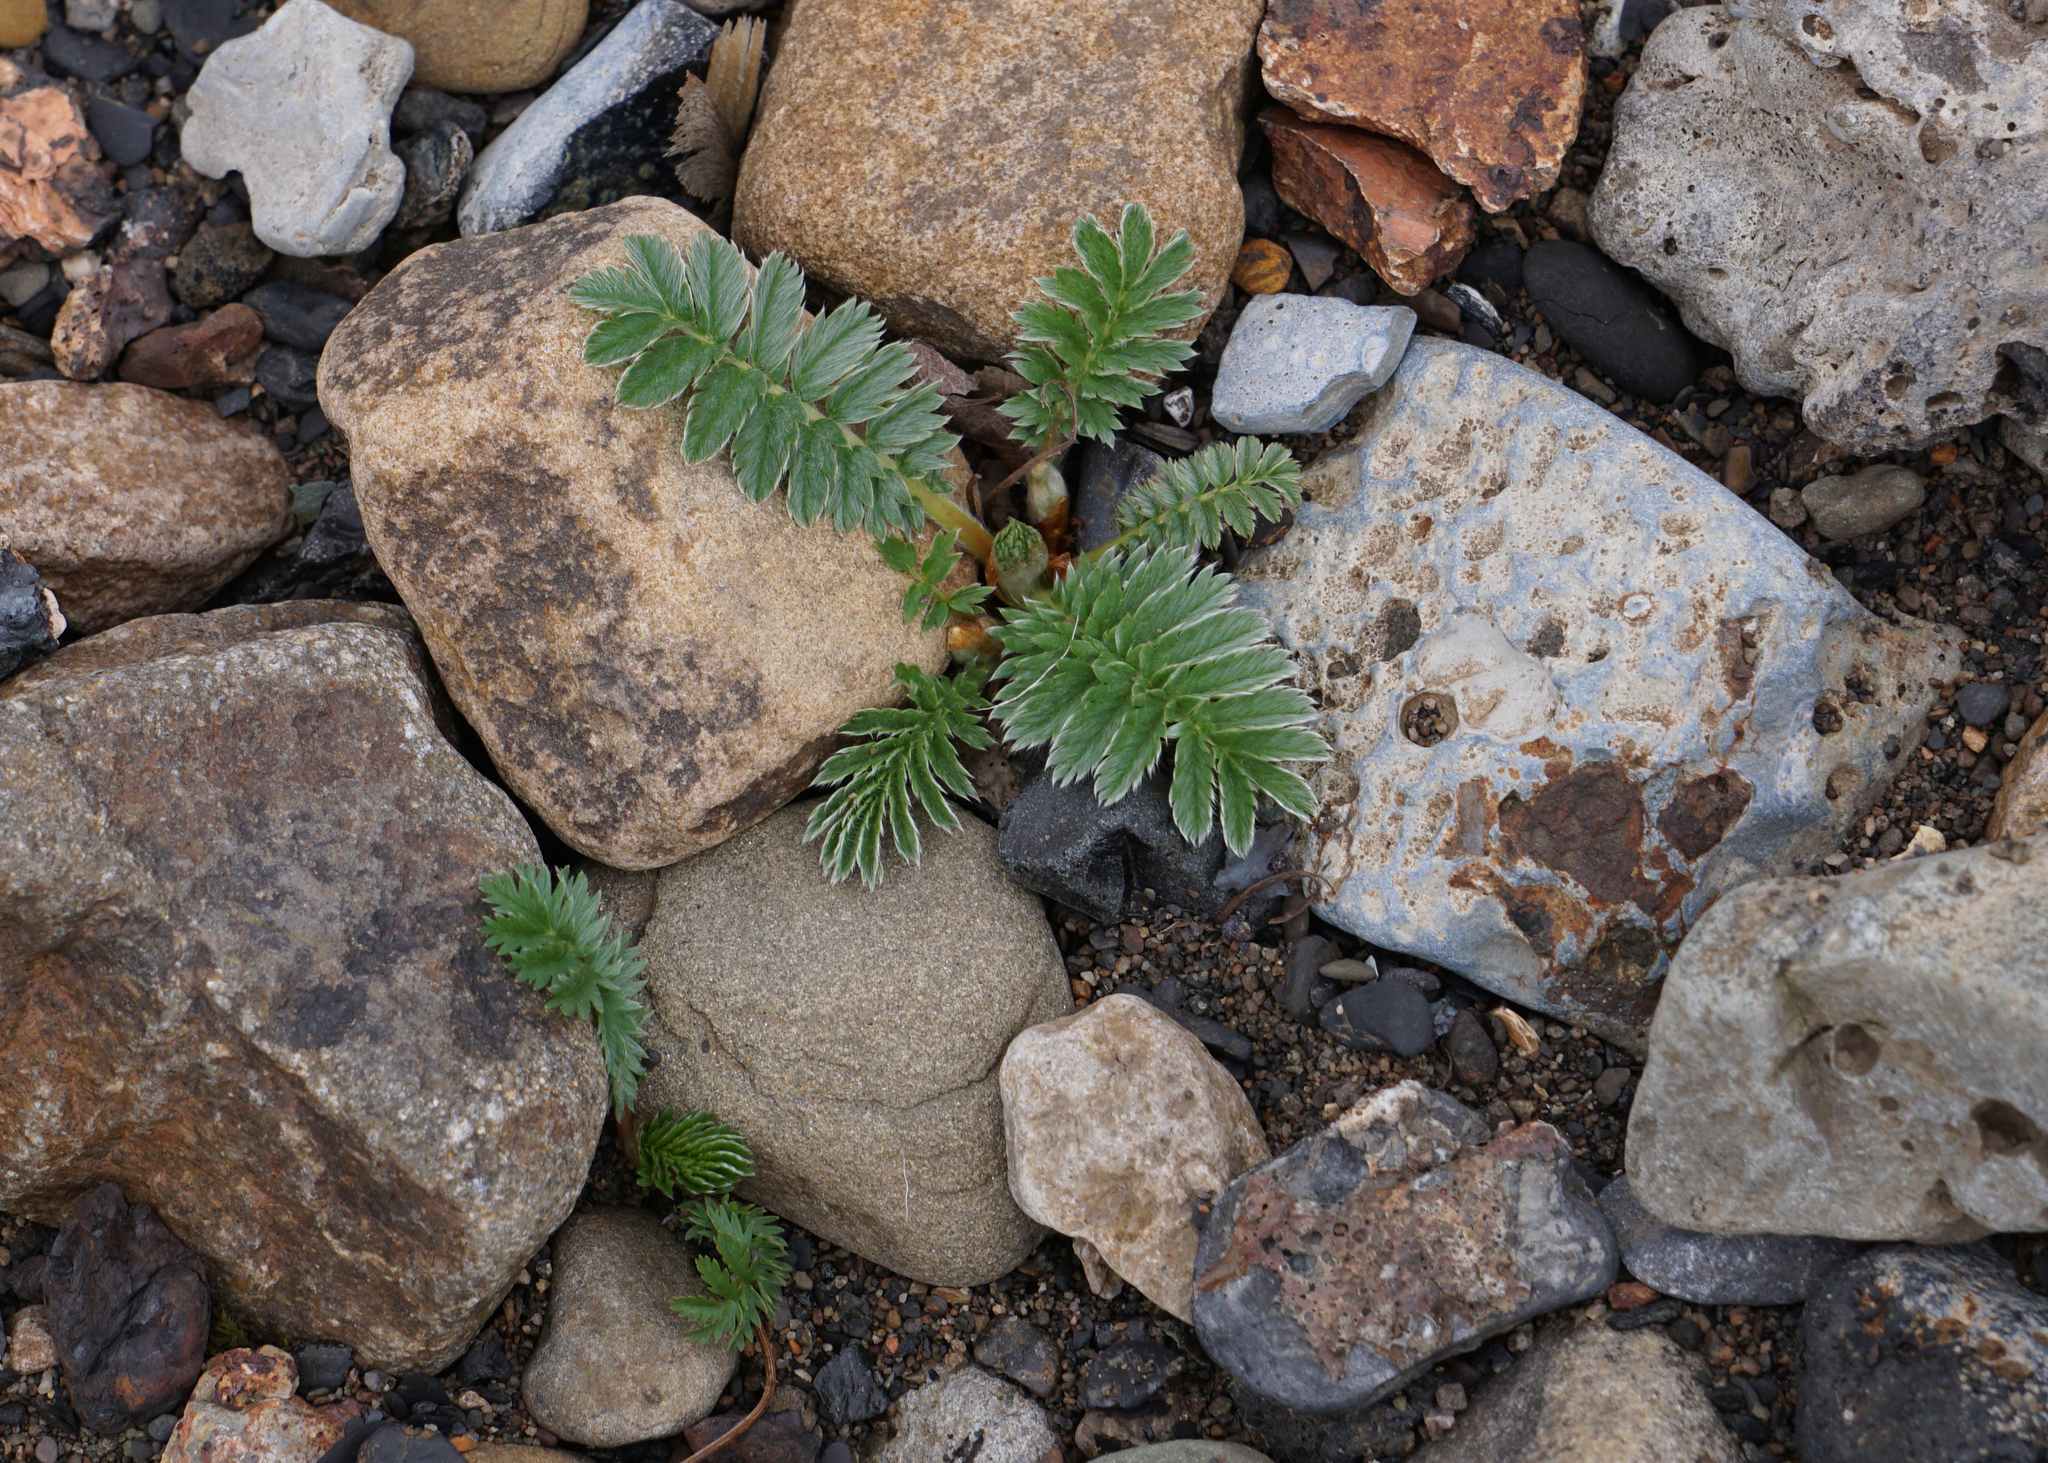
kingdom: Plantae
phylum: Tracheophyta
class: Magnoliopsida
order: Rosales
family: Rosaceae
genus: Argentina
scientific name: Argentina anserina
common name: Common silverweed
